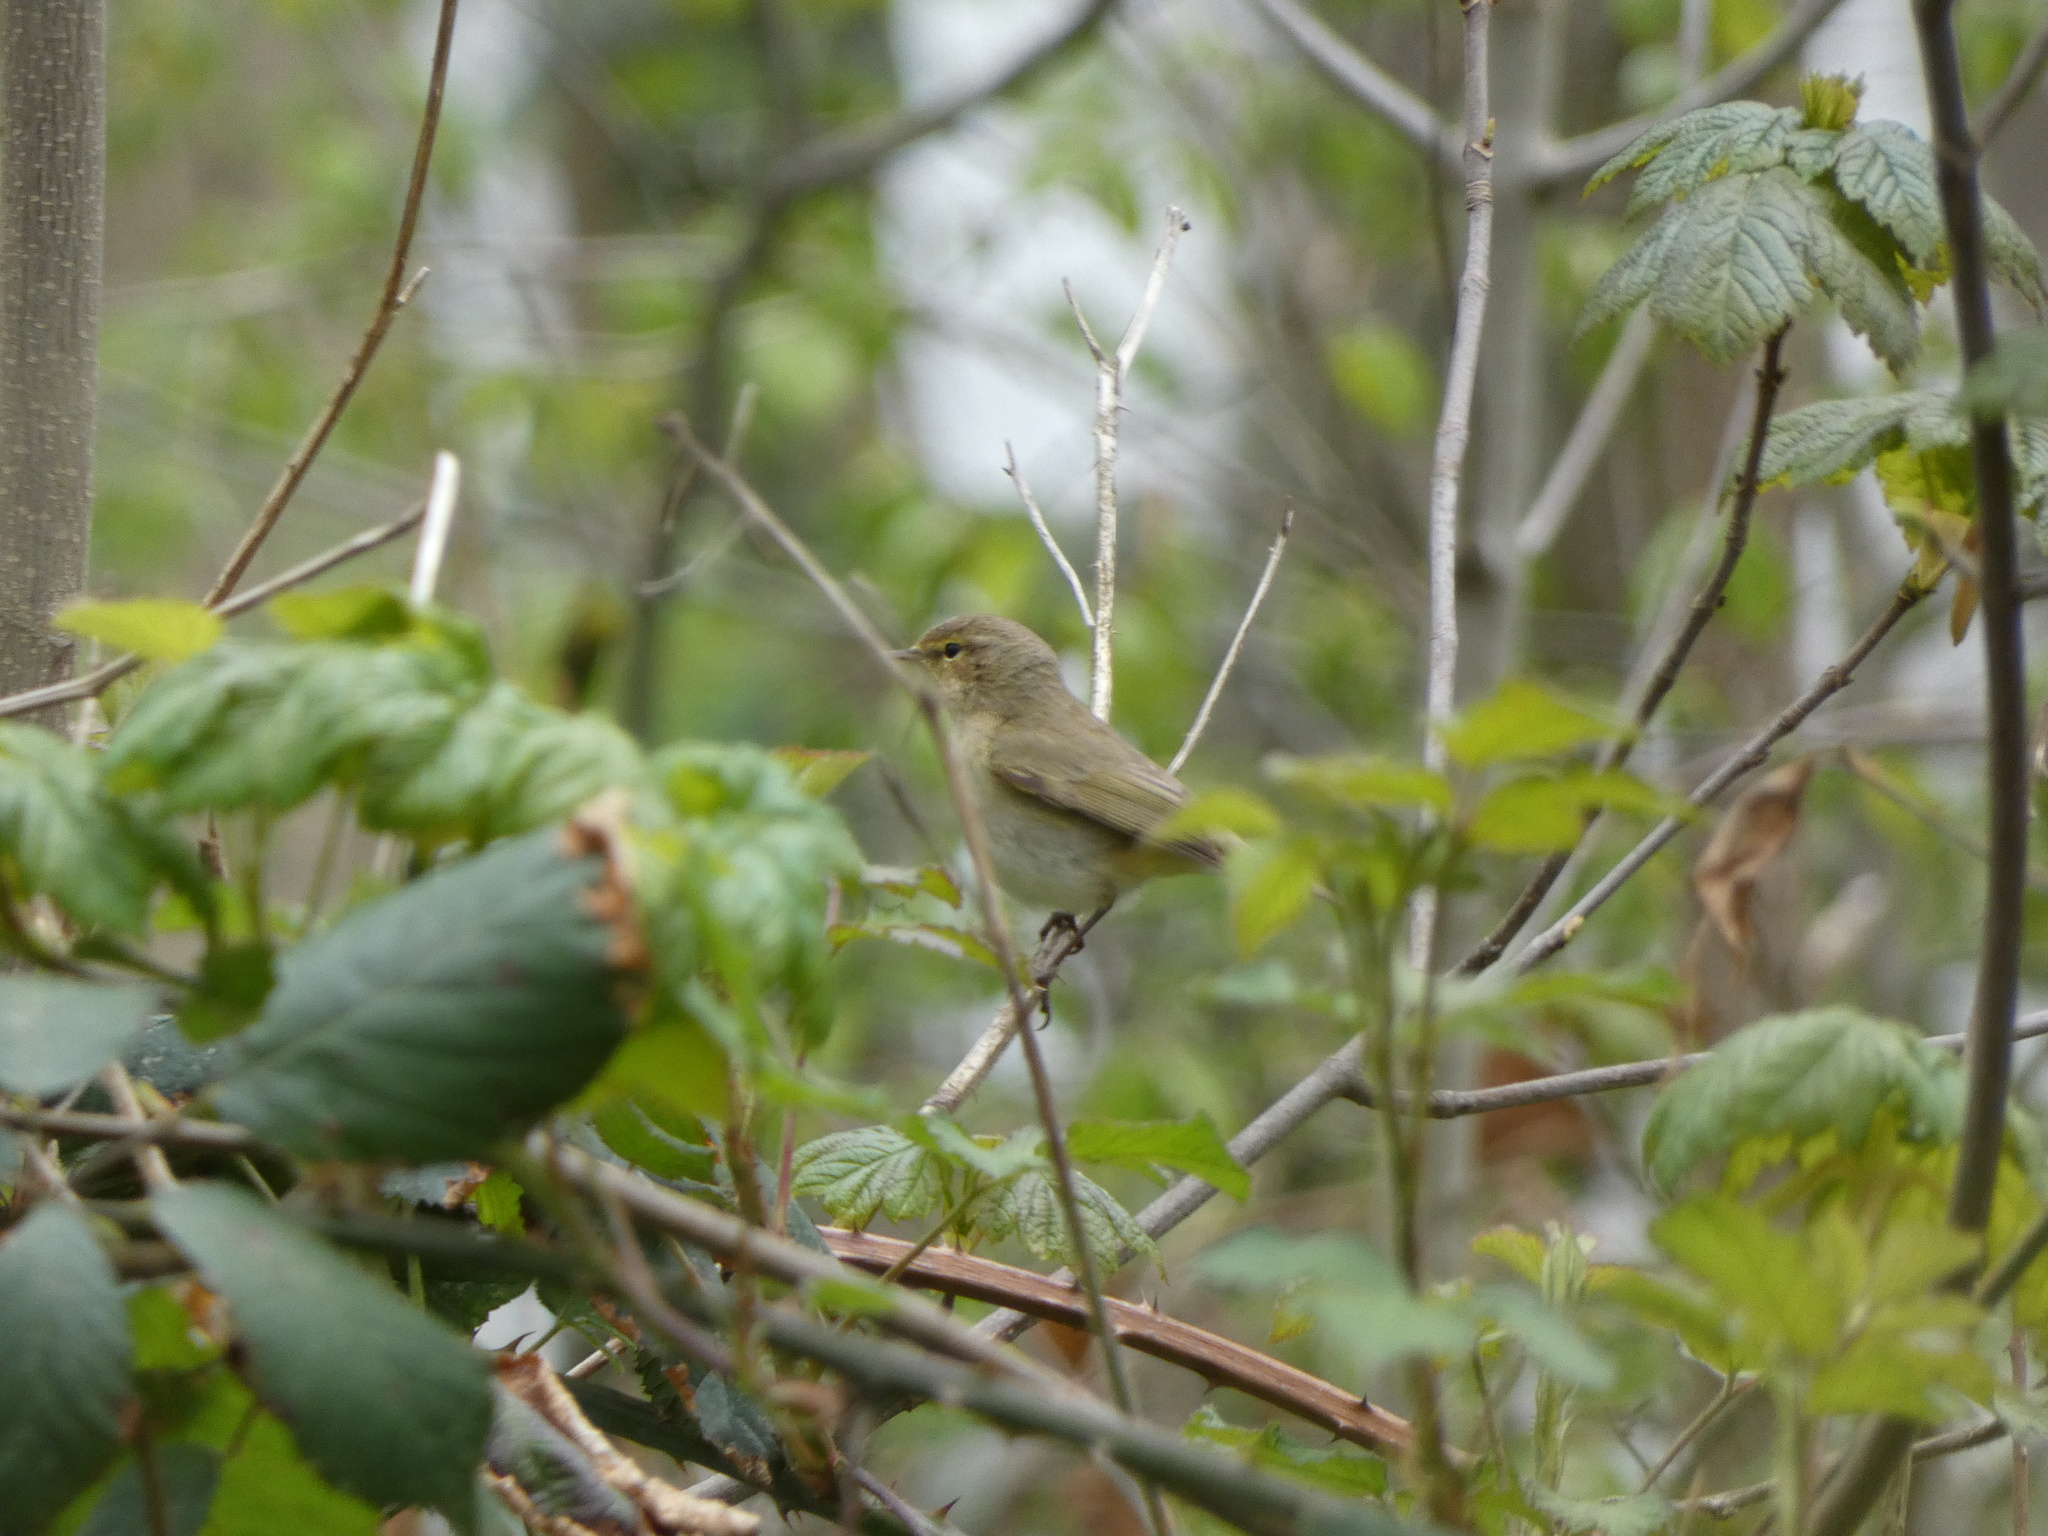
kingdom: Animalia
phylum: Chordata
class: Aves
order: Passeriformes
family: Phylloscopidae
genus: Phylloscopus
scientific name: Phylloscopus collybita
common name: Common chiffchaff
